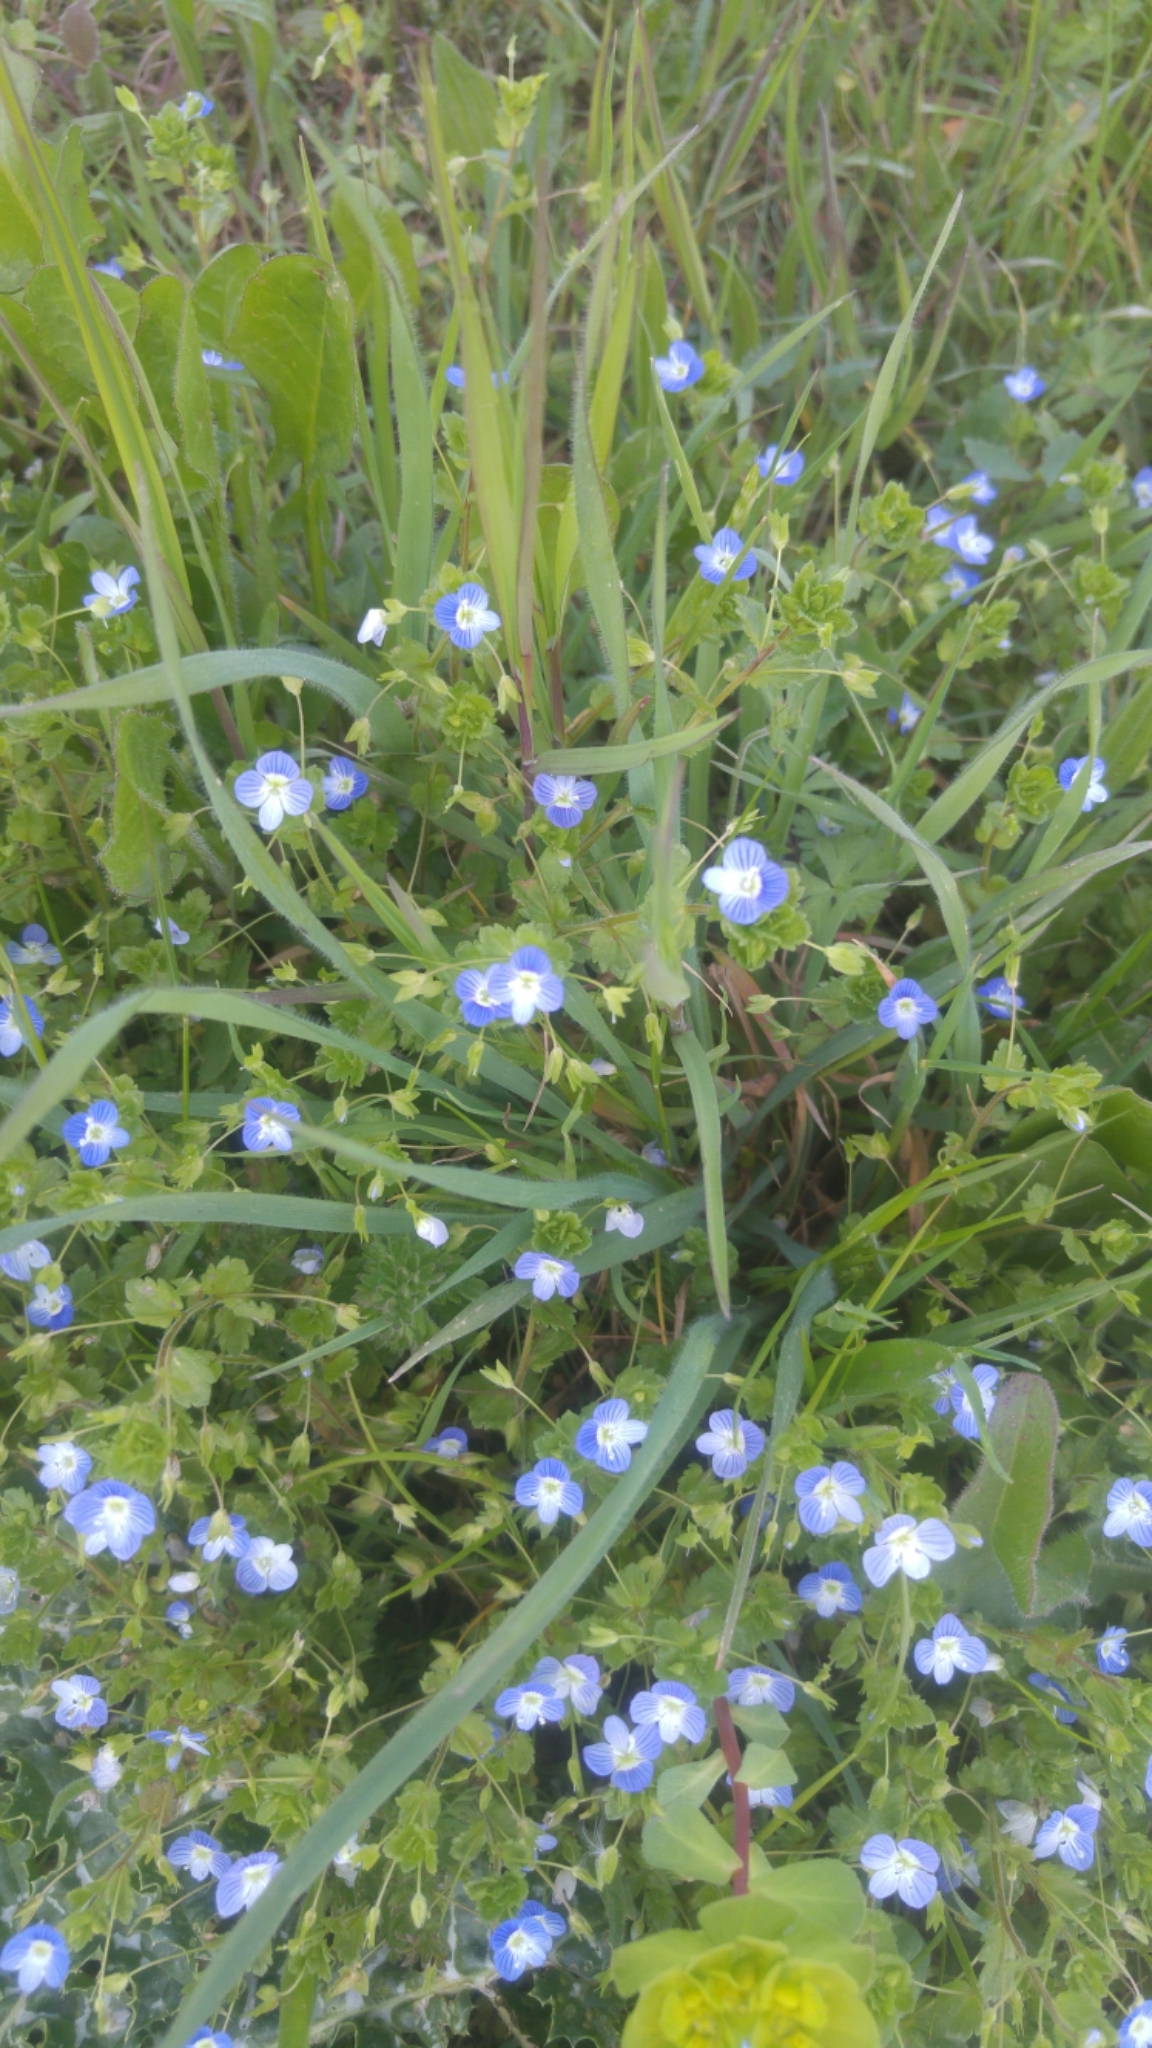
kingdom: Plantae
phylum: Tracheophyta
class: Magnoliopsida
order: Lamiales
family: Plantaginaceae
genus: Veronica
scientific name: Veronica persica
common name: Common field-speedwell
